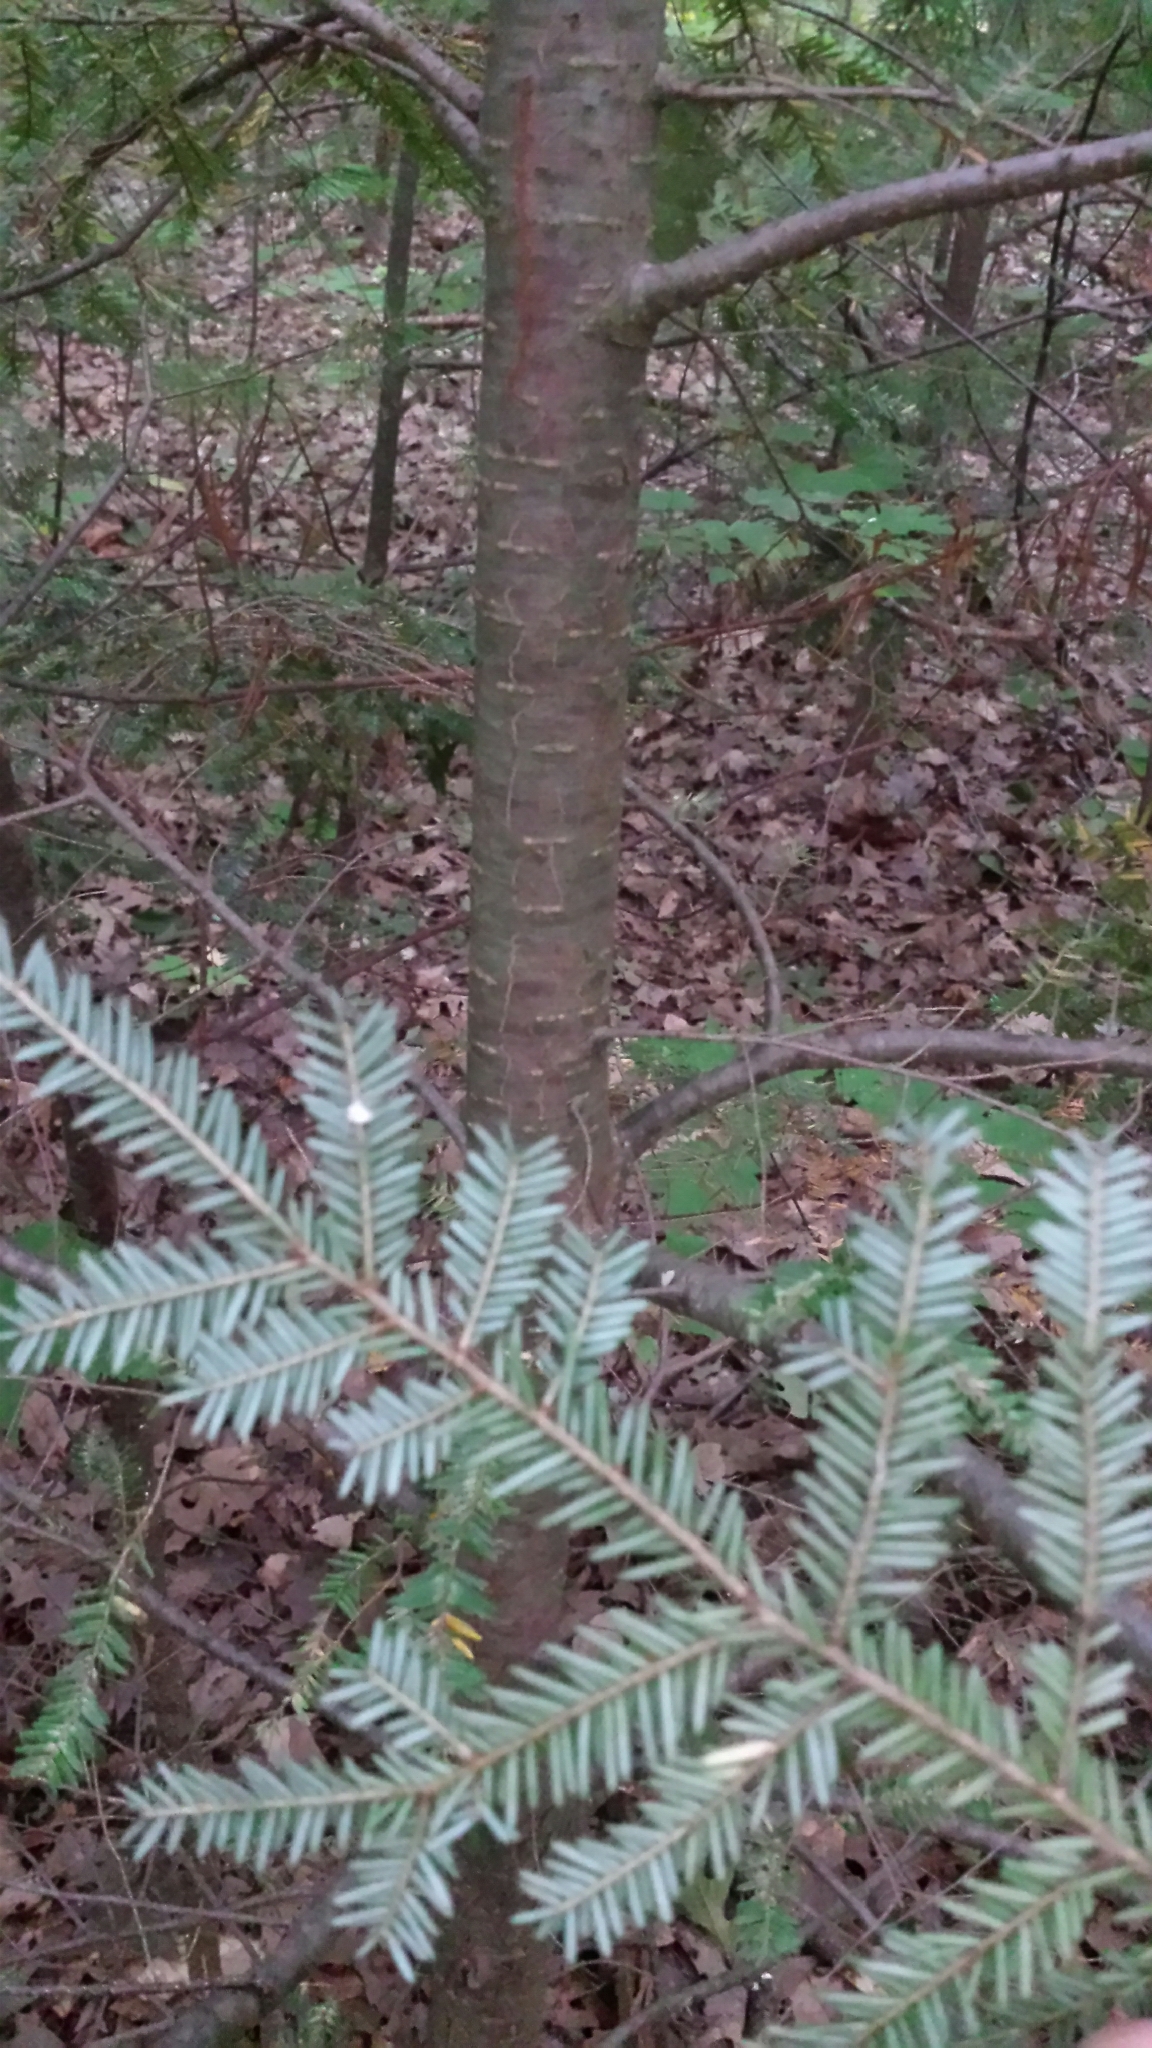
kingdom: Plantae
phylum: Tracheophyta
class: Pinopsida
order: Pinales
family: Pinaceae
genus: Tsuga
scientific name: Tsuga canadensis
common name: Eastern hemlock
